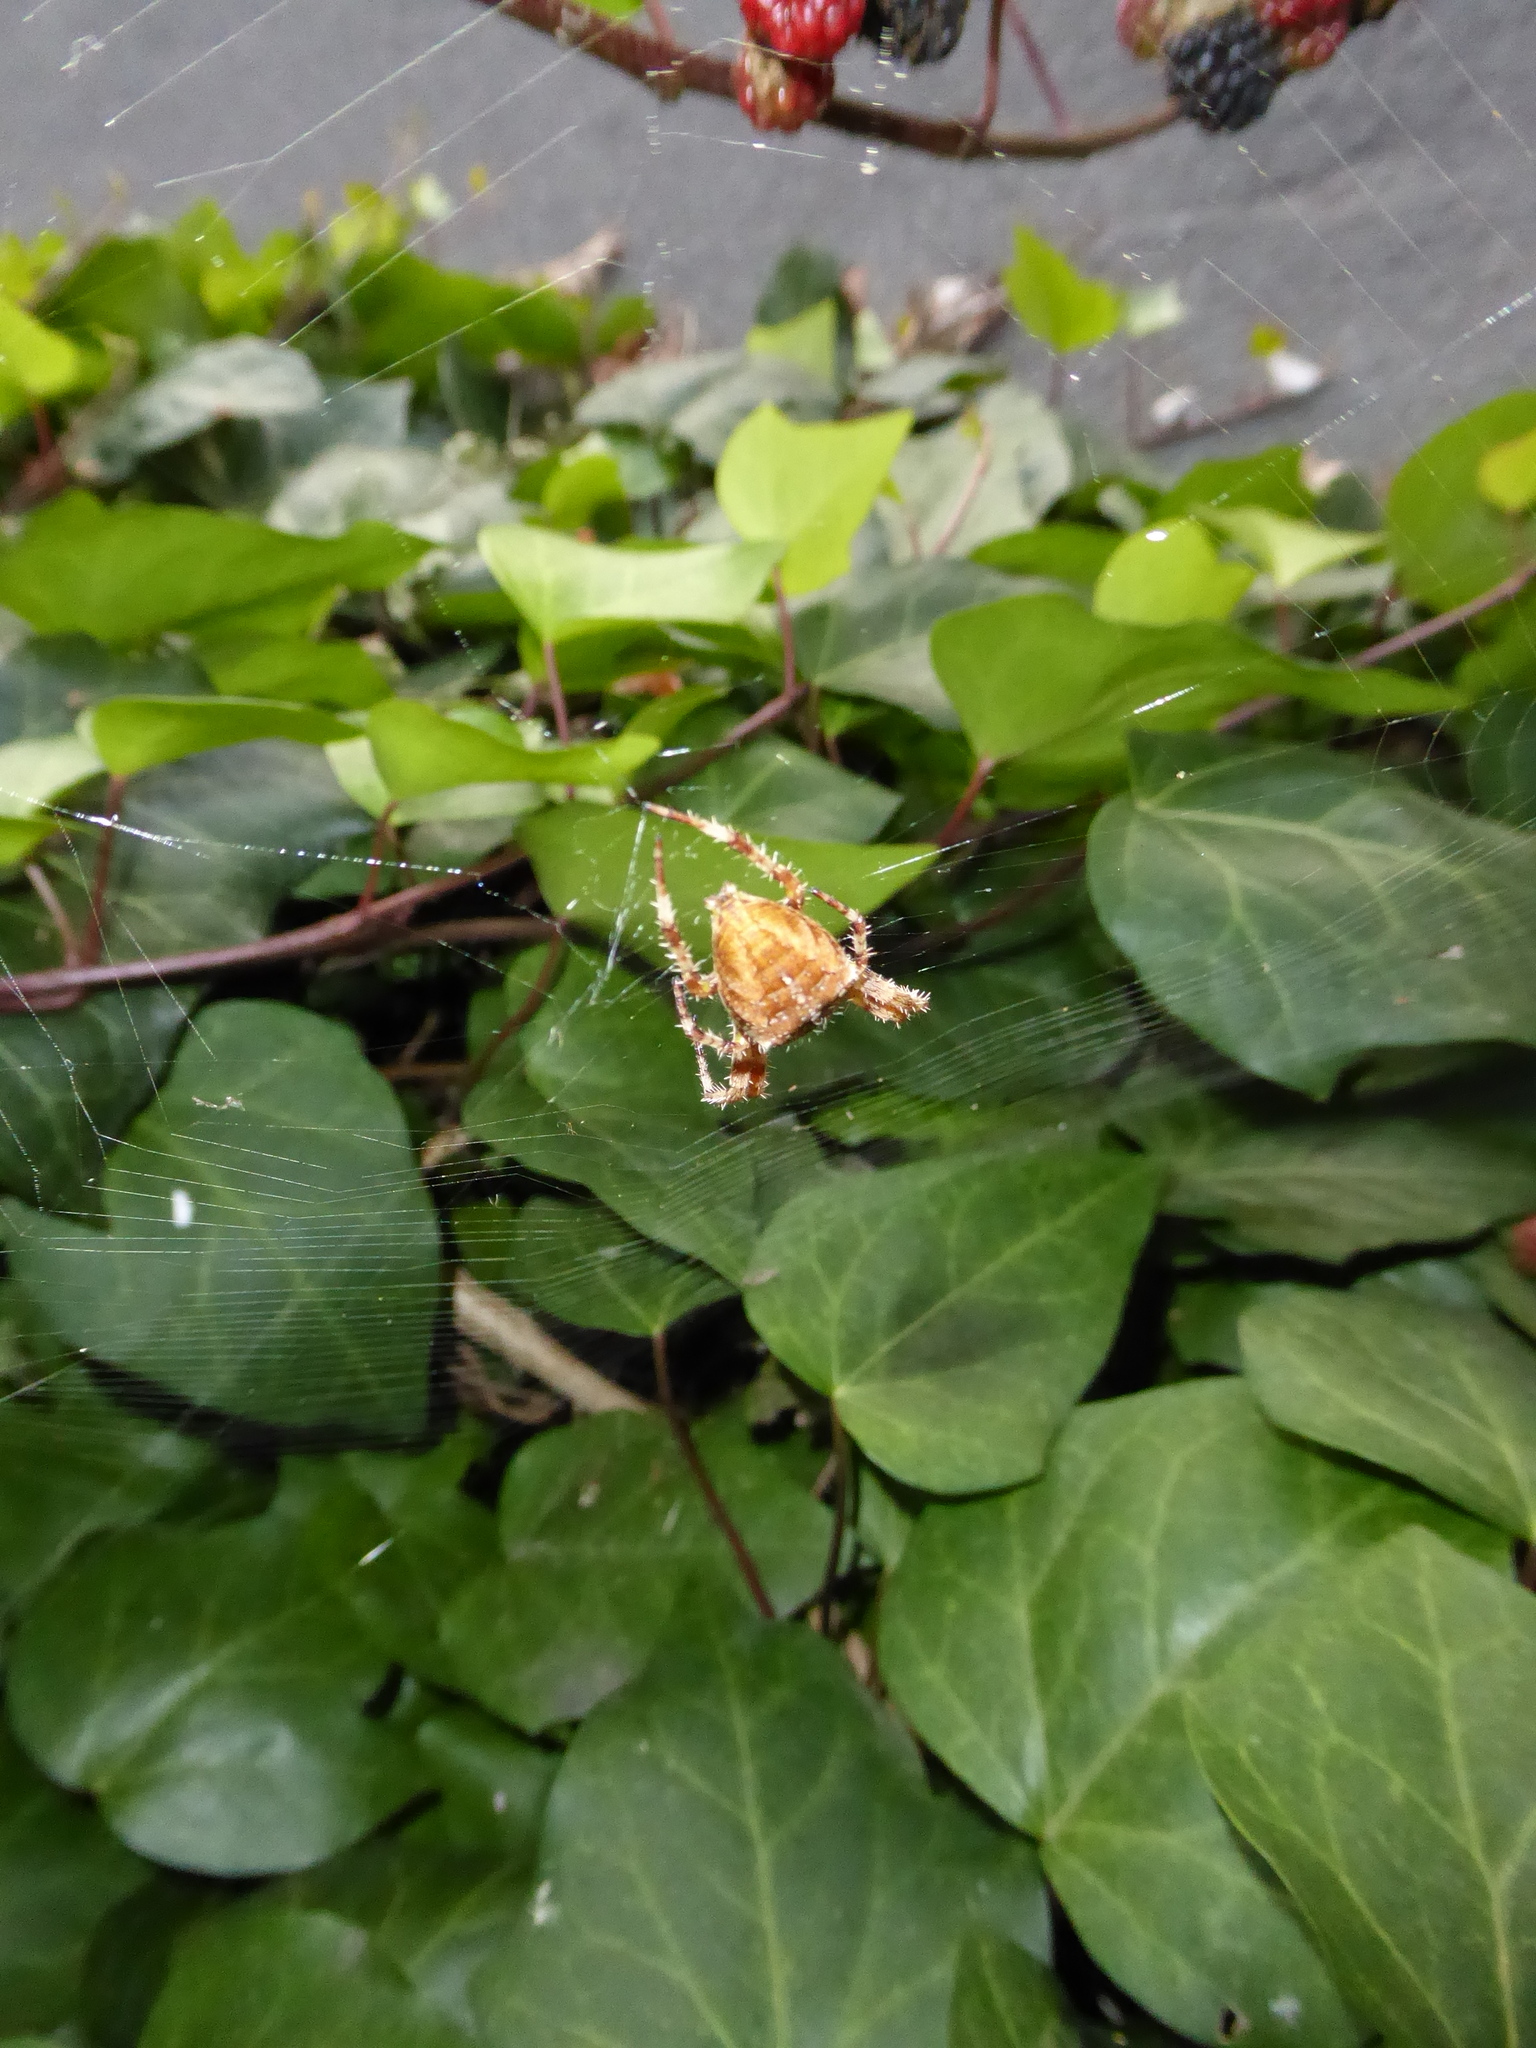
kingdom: Animalia
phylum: Arthropoda
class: Arachnida
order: Araneae
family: Araneidae
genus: Araneus
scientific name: Araneus diadematus
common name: Cross orbweaver
